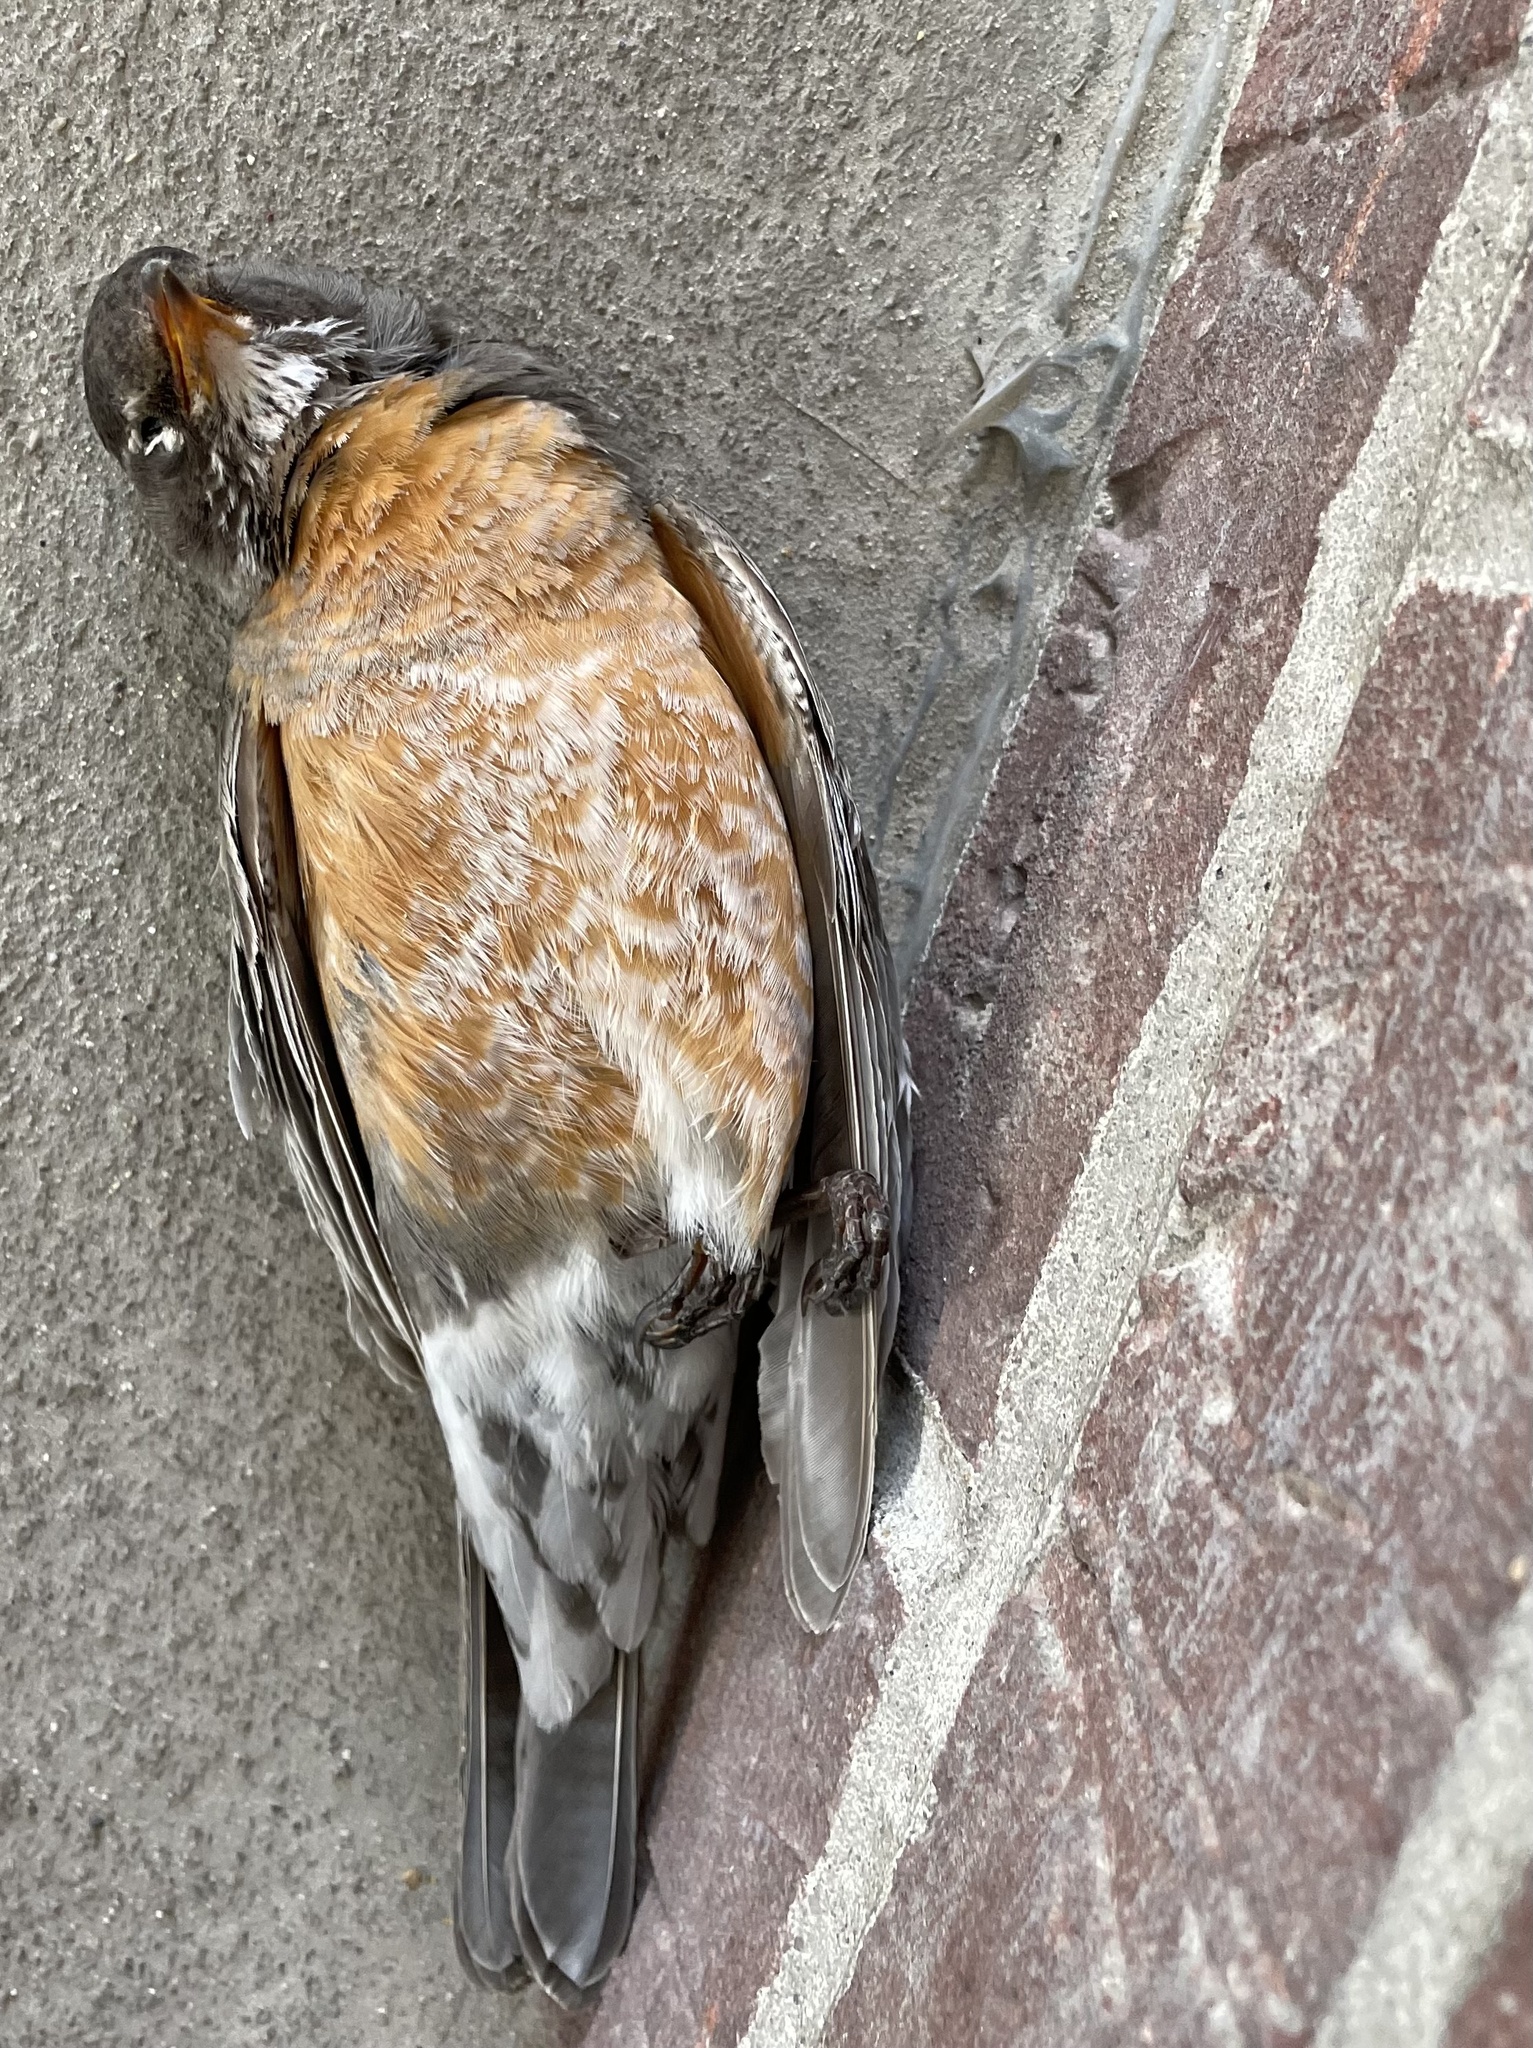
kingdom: Animalia
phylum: Chordata
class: Aves
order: Passeriformes
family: Turdidae
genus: Turdus
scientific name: Turdus migratorius
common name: American robin
